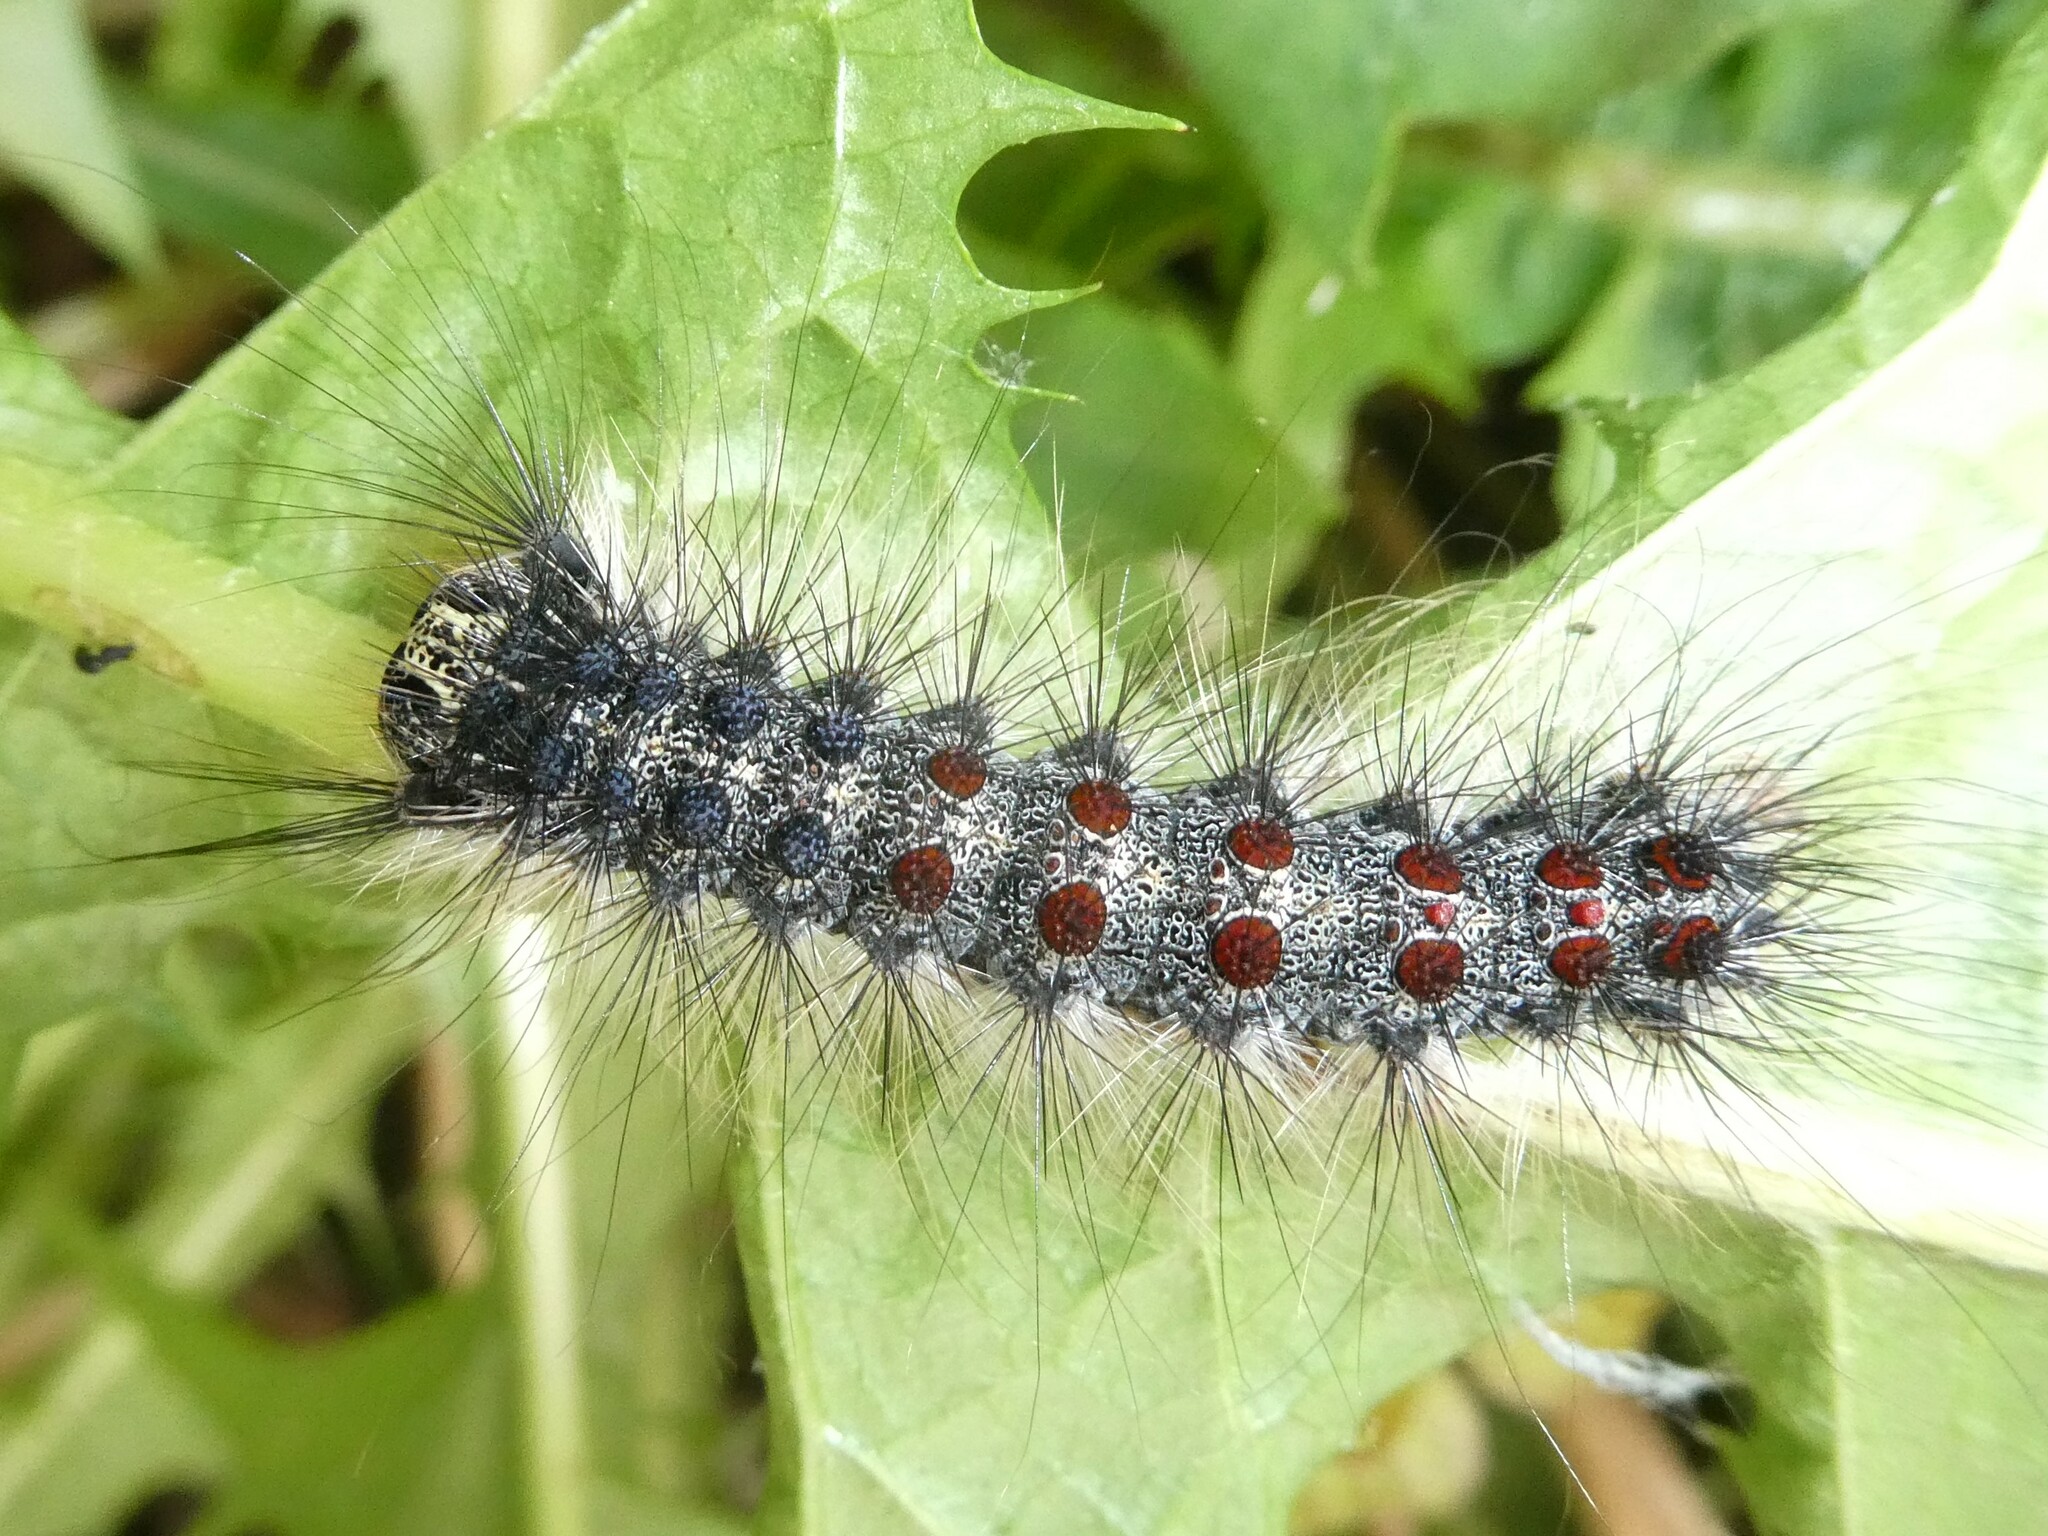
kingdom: Animalia
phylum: Arthropoda
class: Insecta
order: Lepidoptera
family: Erebidae
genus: Lymantria
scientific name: Lymantria dispar
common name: Gypsy moth
